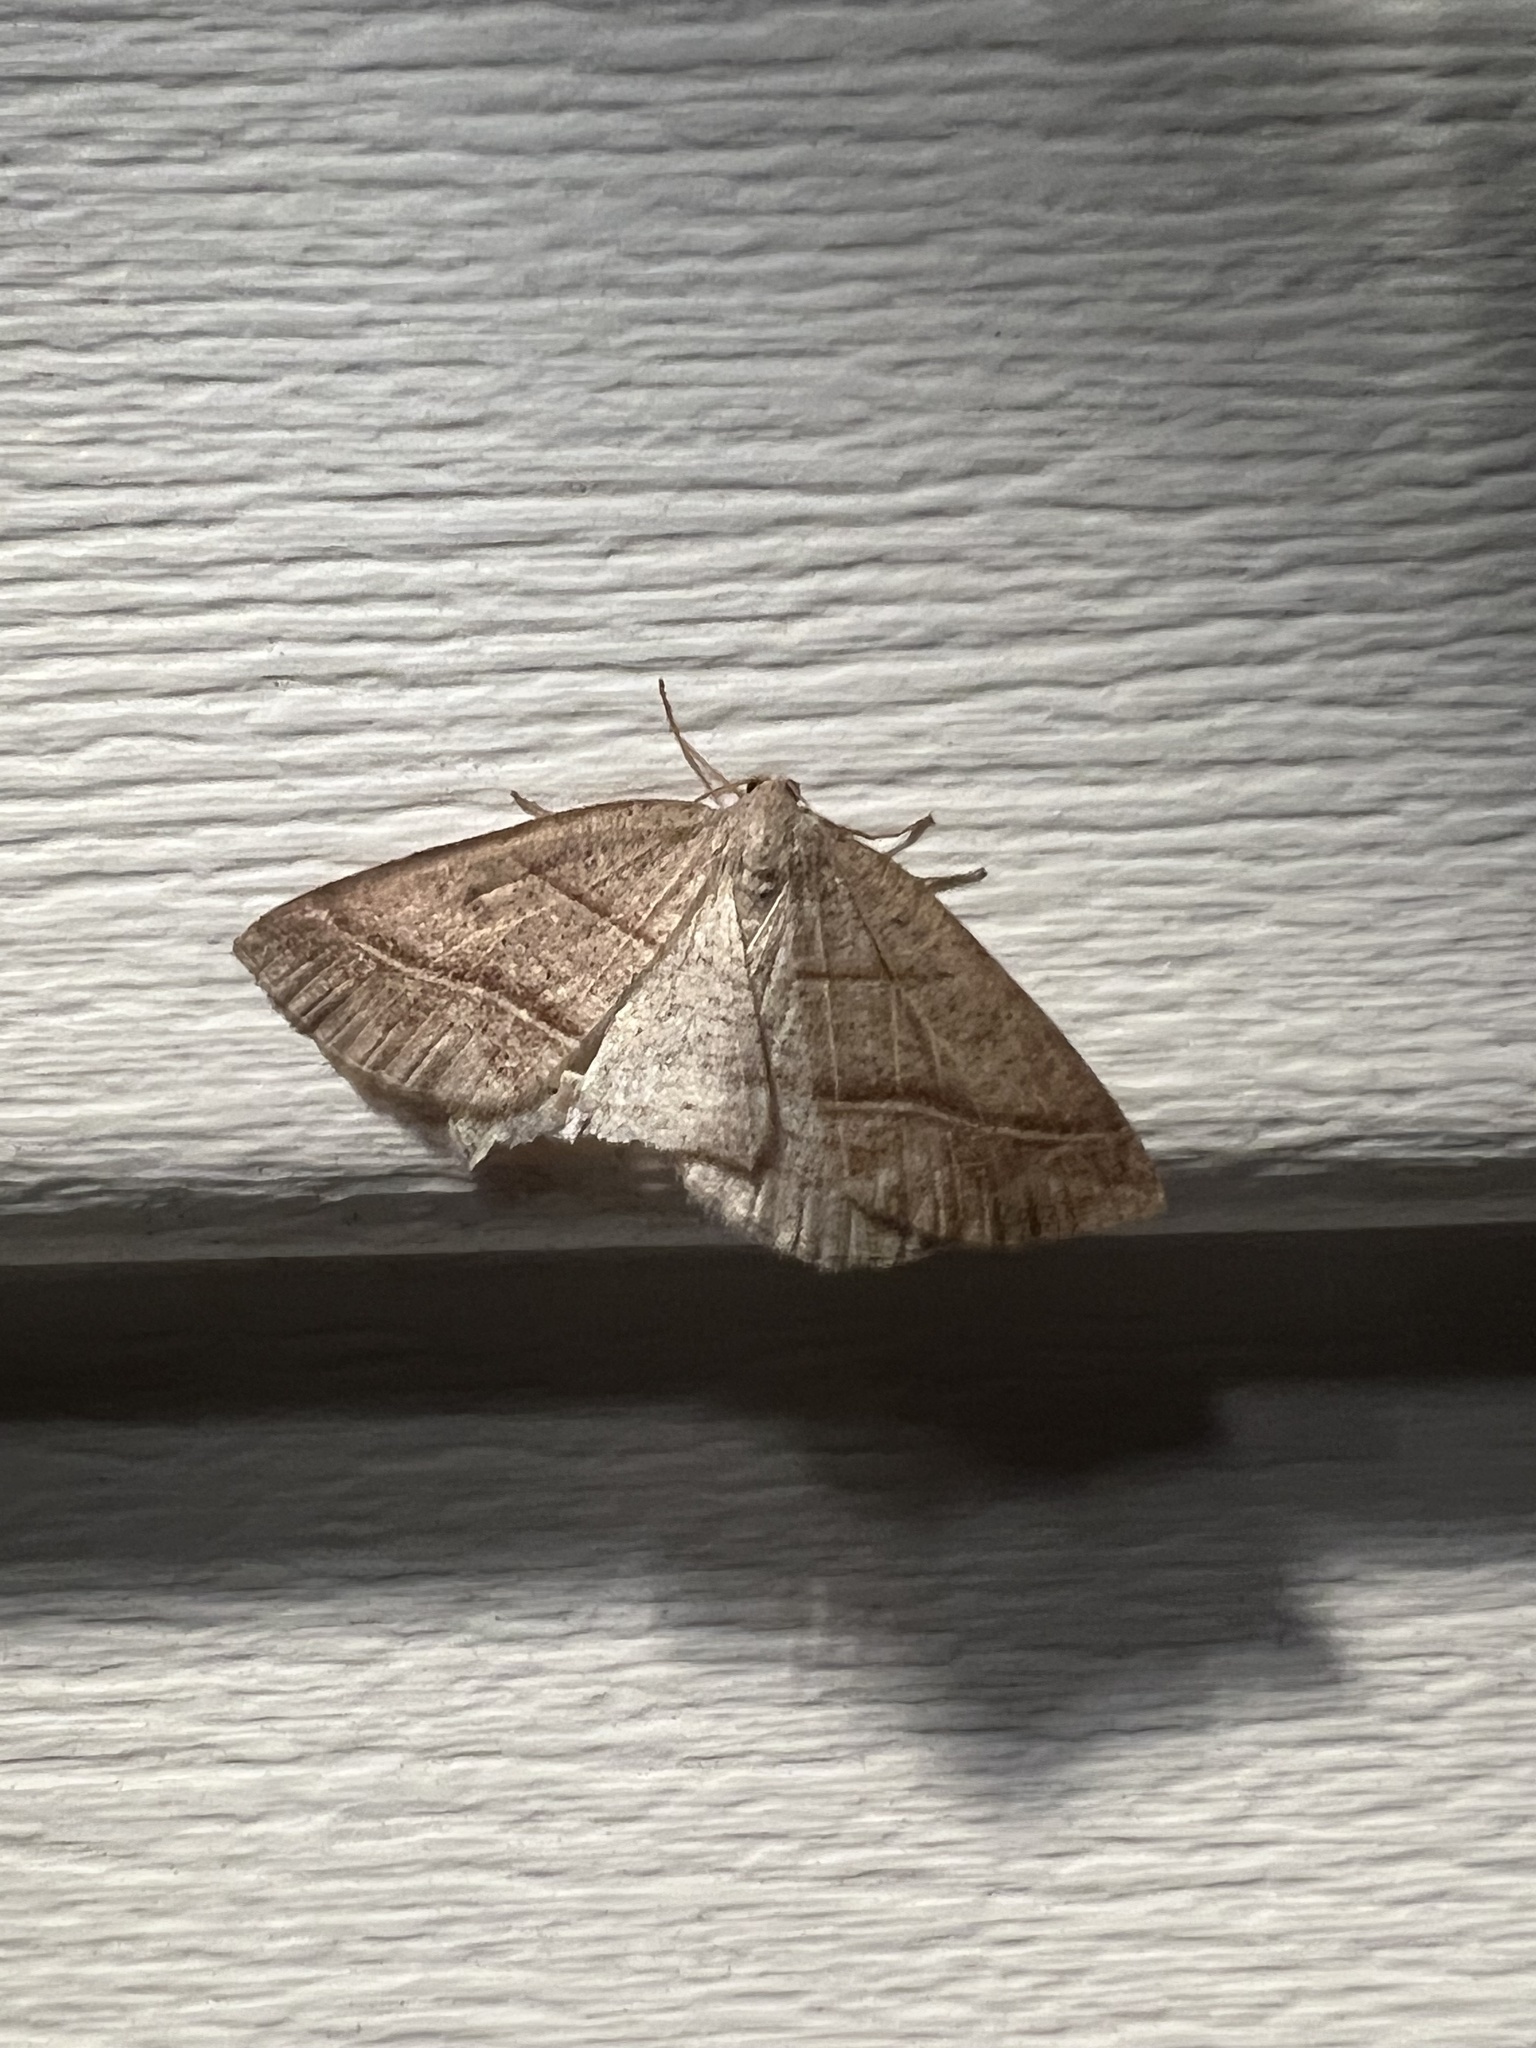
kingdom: Animalia
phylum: Arthropoda
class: Insecta
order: Lepidoptera
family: Pterophoridae
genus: Pterophorus
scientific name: Pterophorus Petrophora subaequaria
